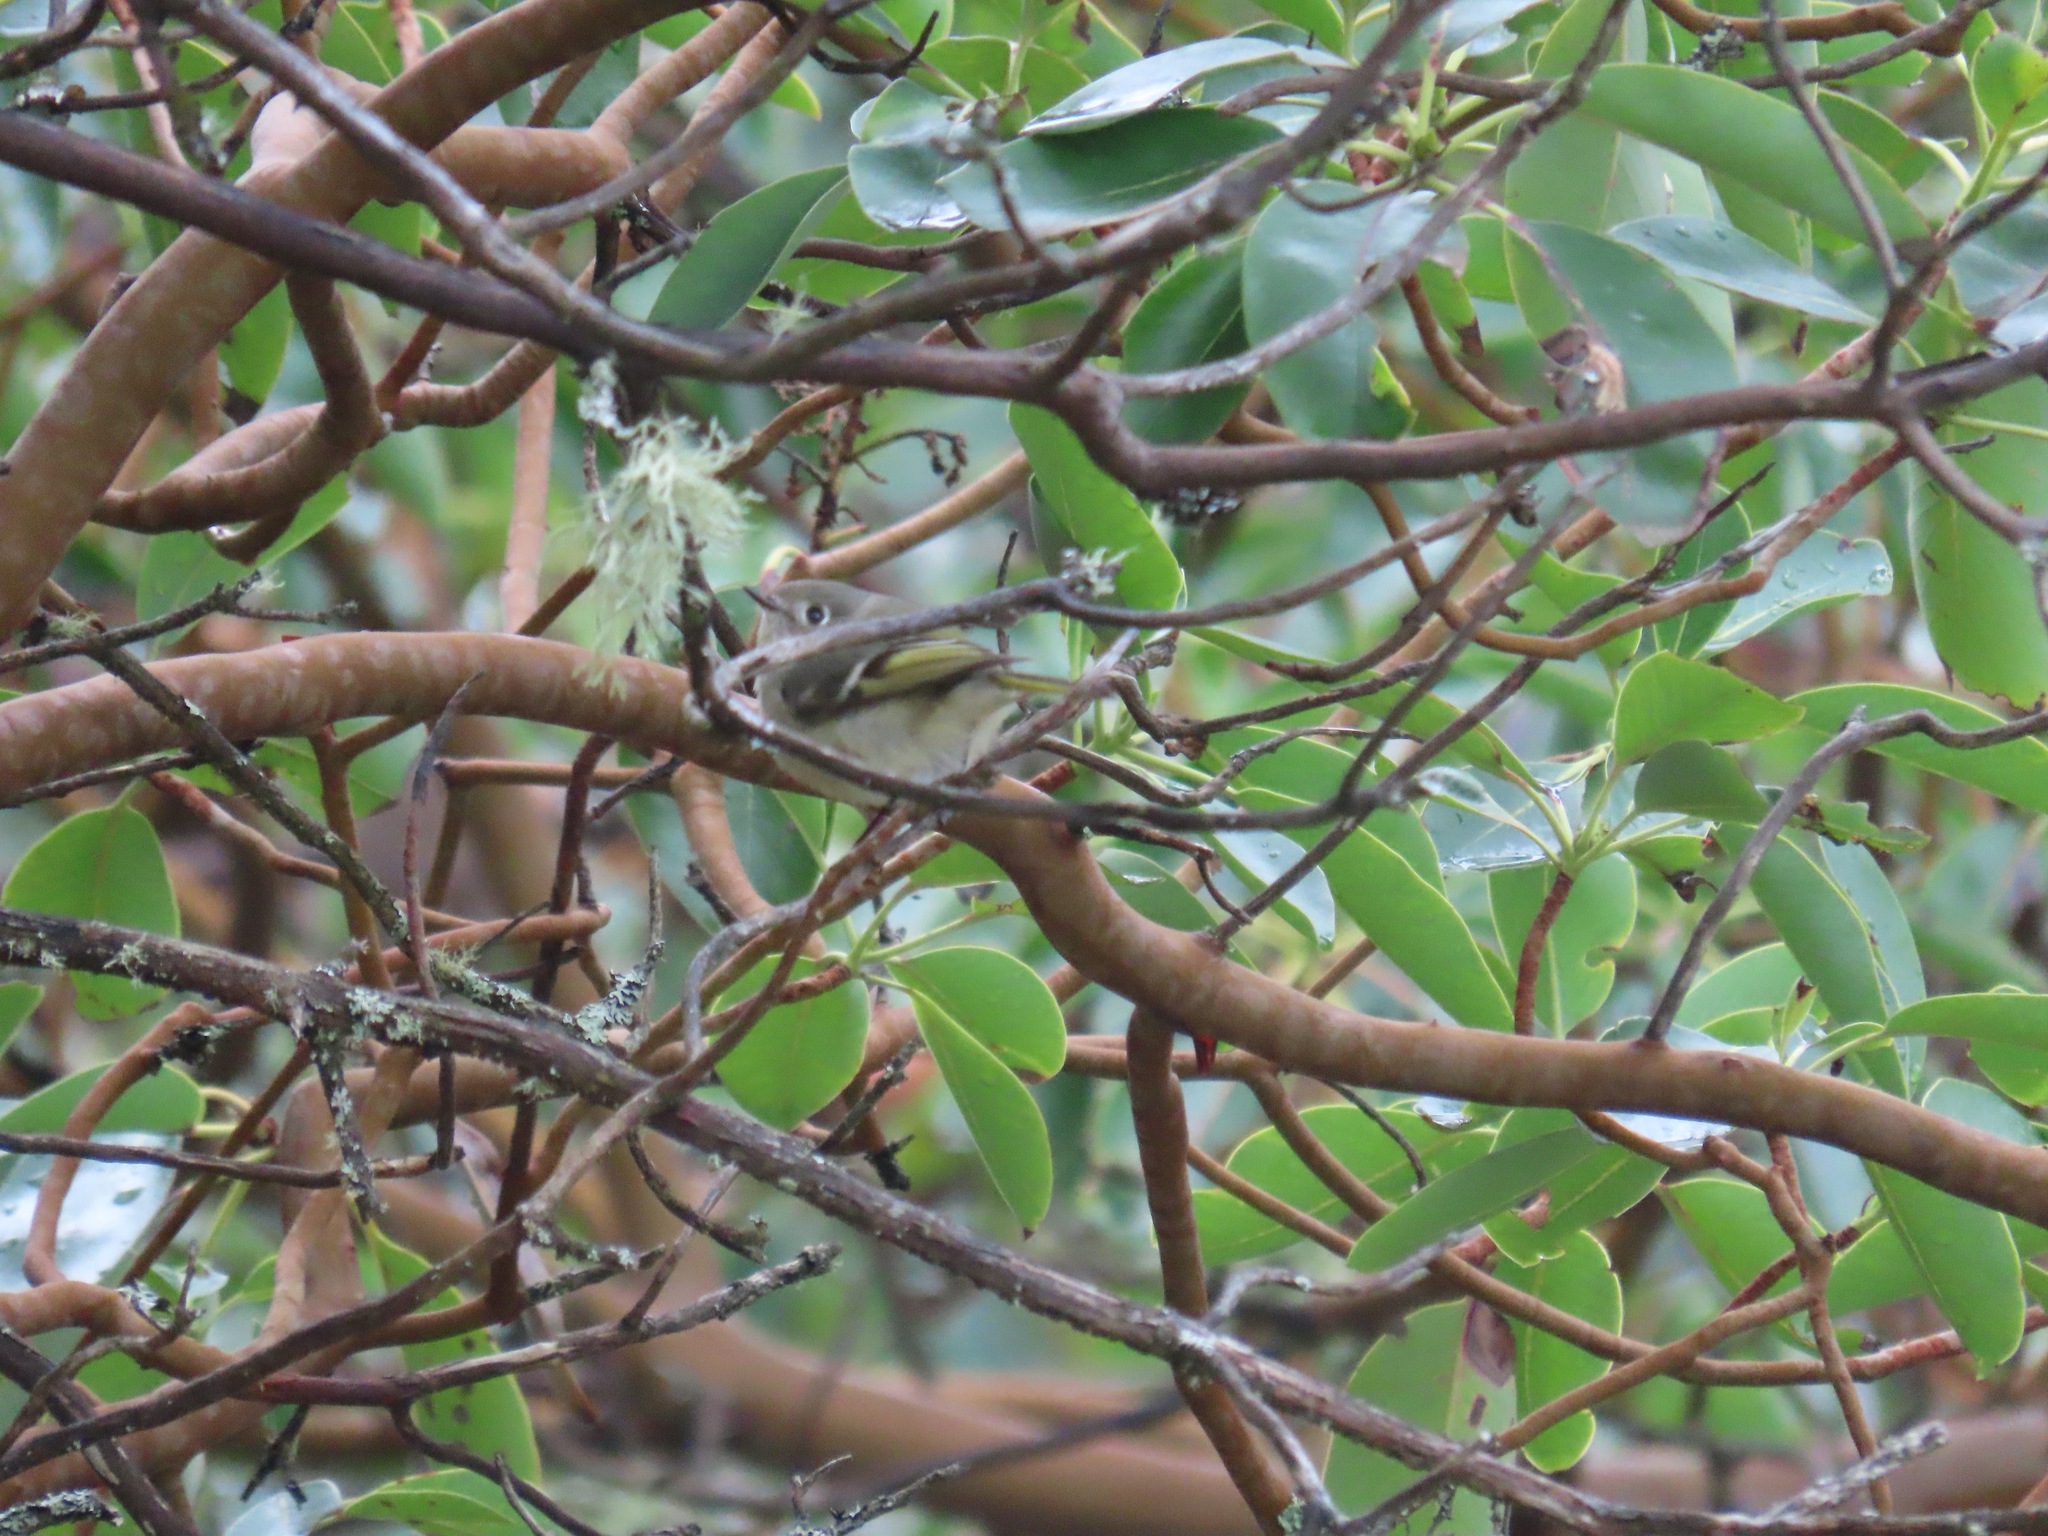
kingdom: Animalia
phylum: Chordata
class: Aves
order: Passeriformes
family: Regulidae
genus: Regulus
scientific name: Regulus calendula
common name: Ruby-crowned kinglet
